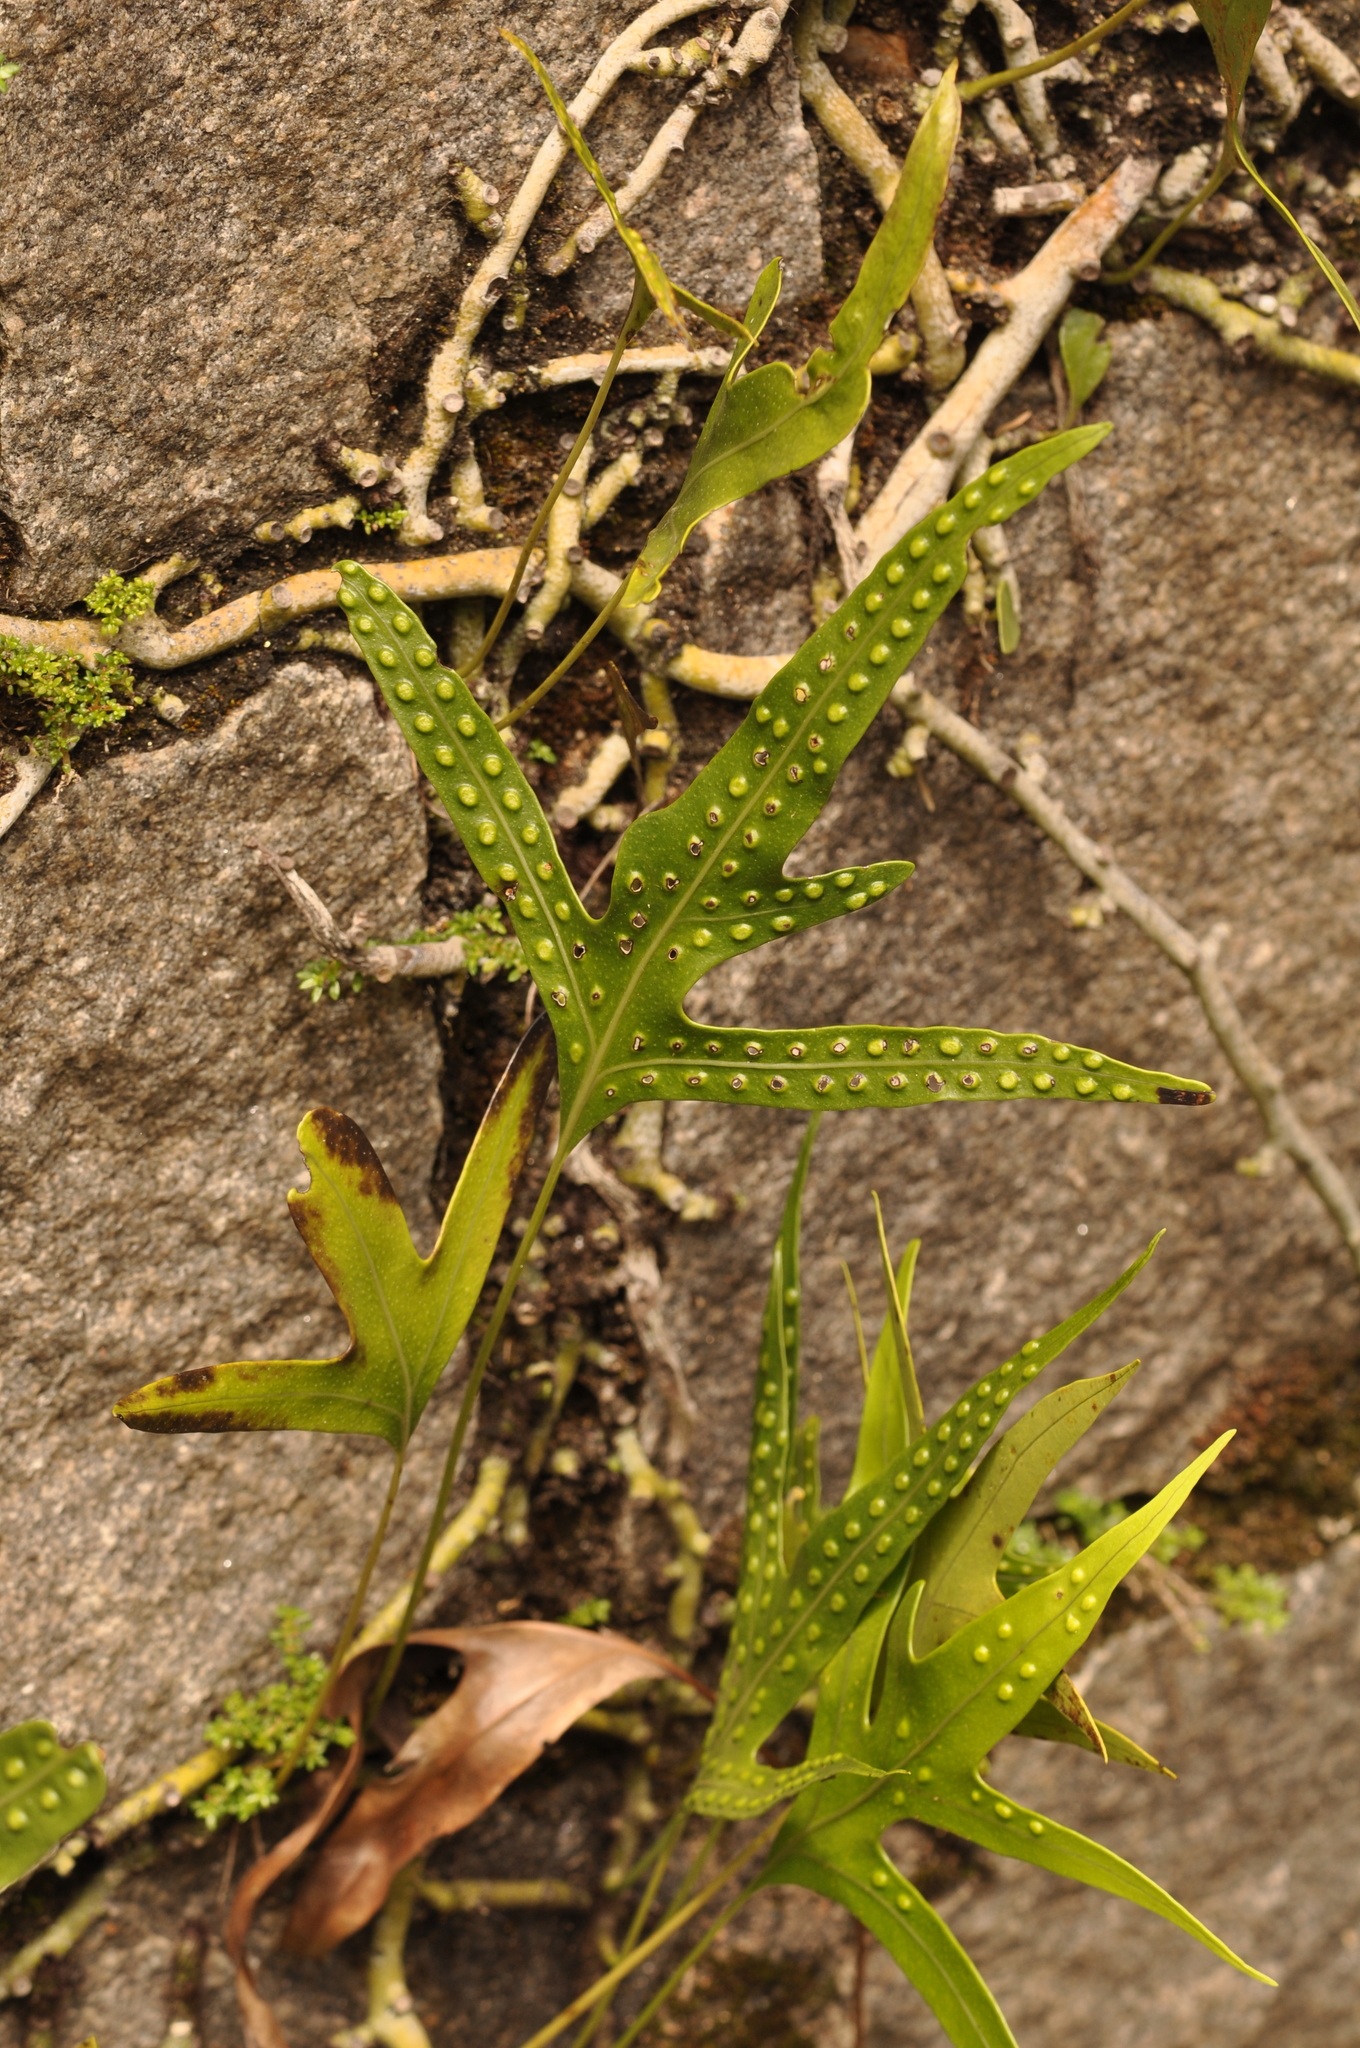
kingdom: Plantae
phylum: Tracheophyta
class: Polypodiopsida
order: Polypodiales
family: Polypodiaceae
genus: Microsorum
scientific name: Microsorum scolopendria
